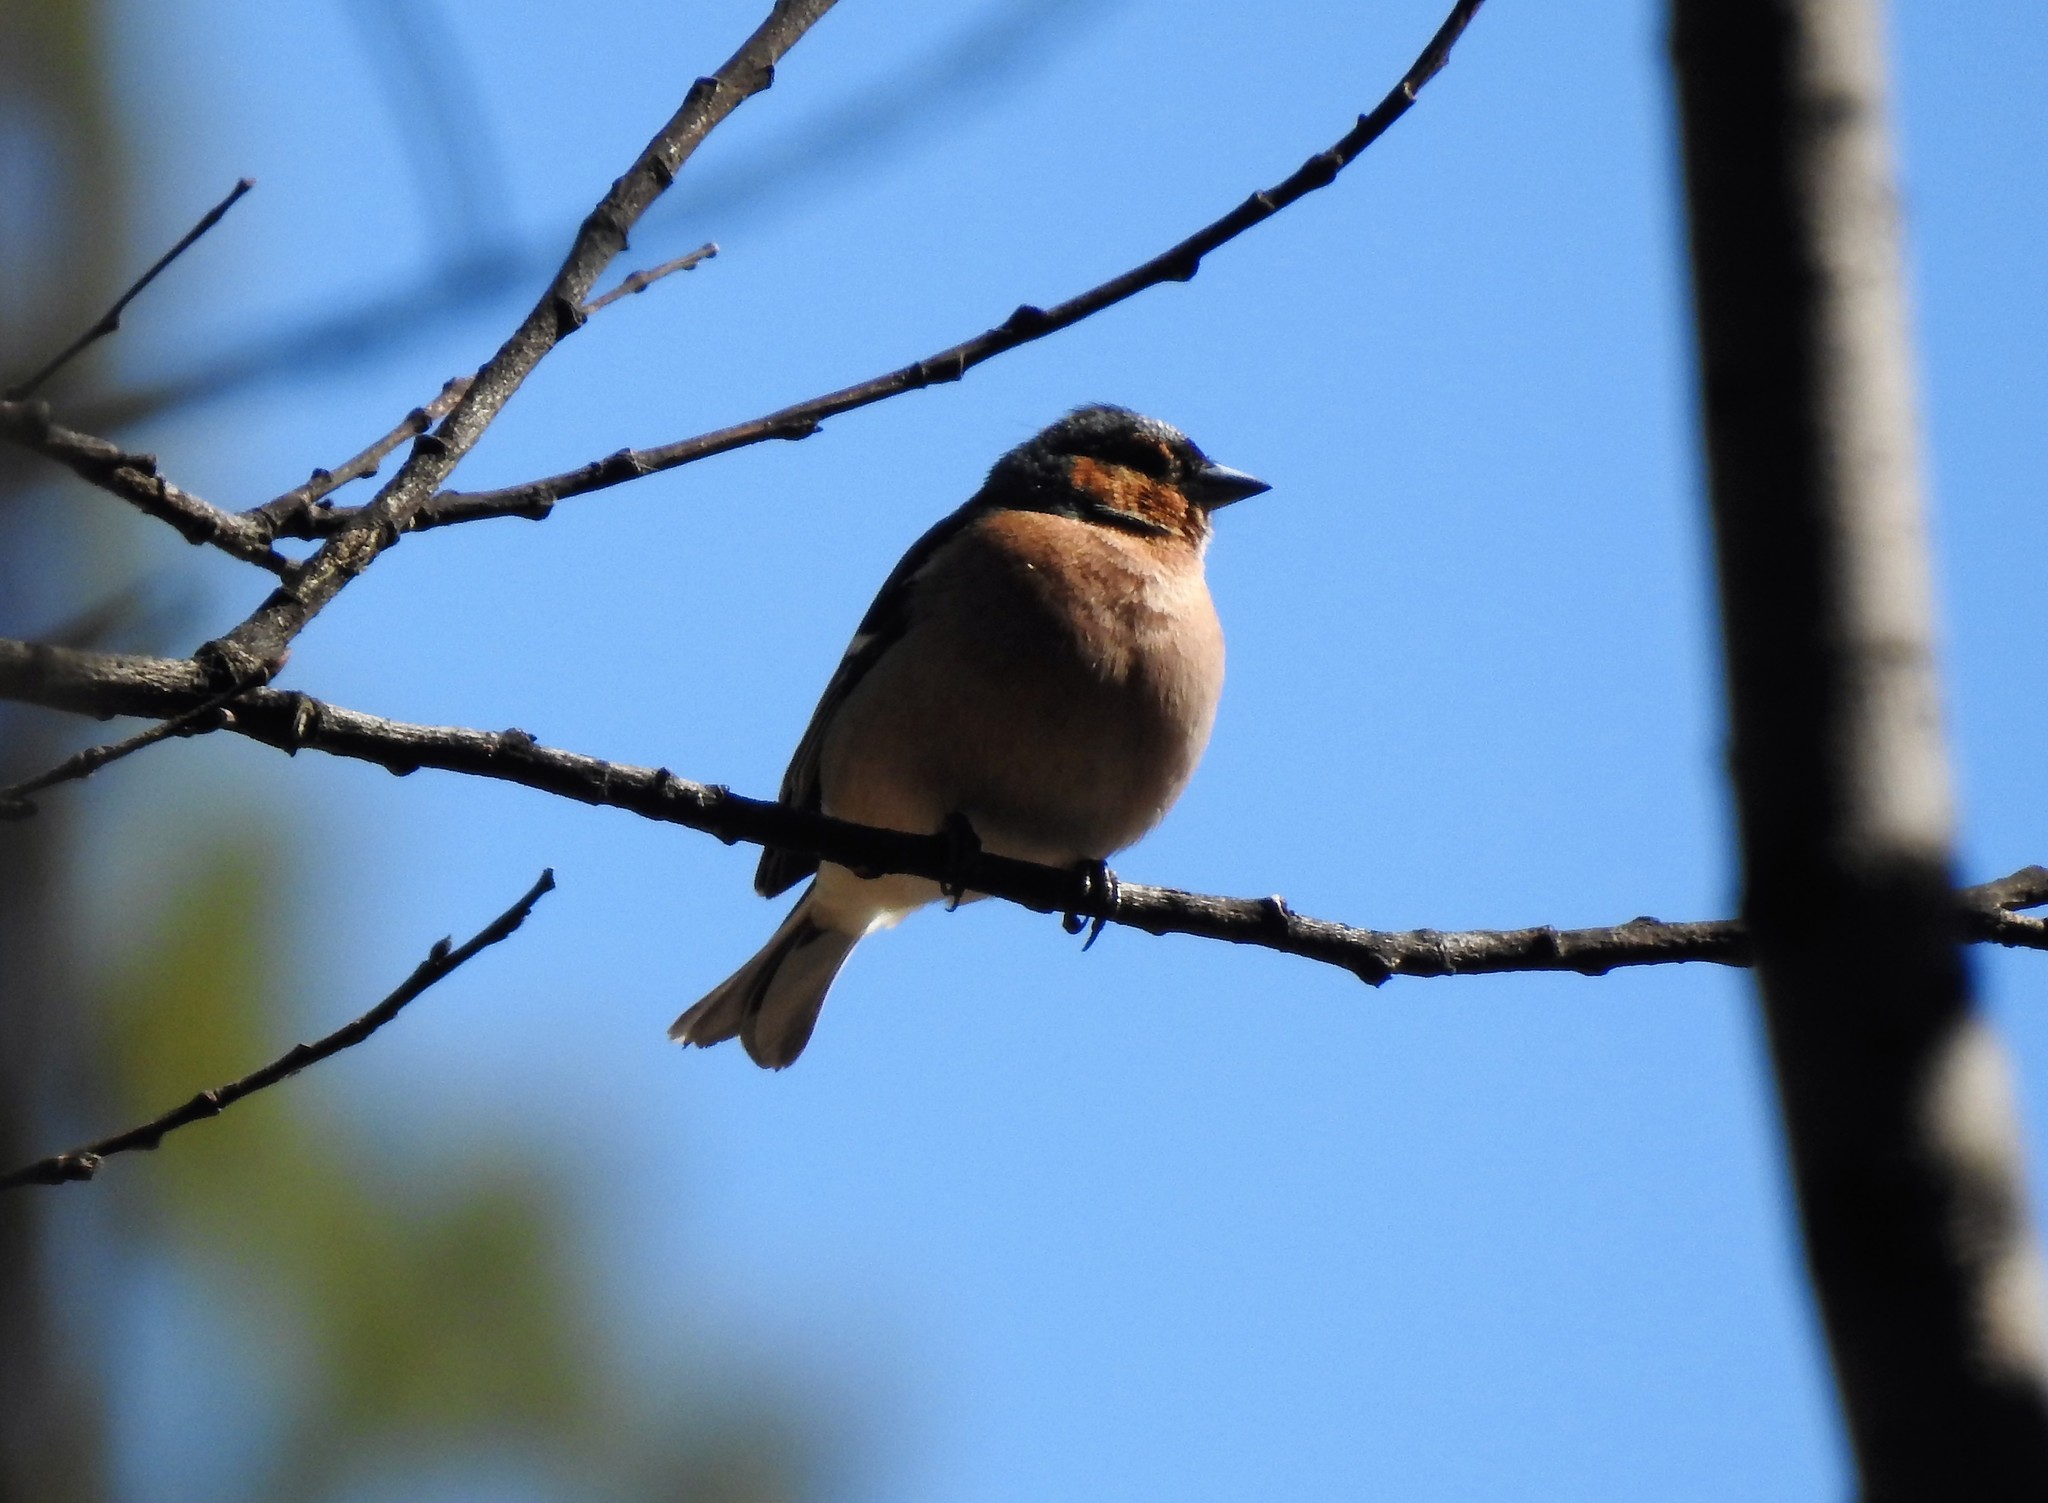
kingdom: Animalia
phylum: Chordata
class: Aves
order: Passeriformes
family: Fringillidae
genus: Fringilla
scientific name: Fringilla coelebs
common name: Common chaffinch
